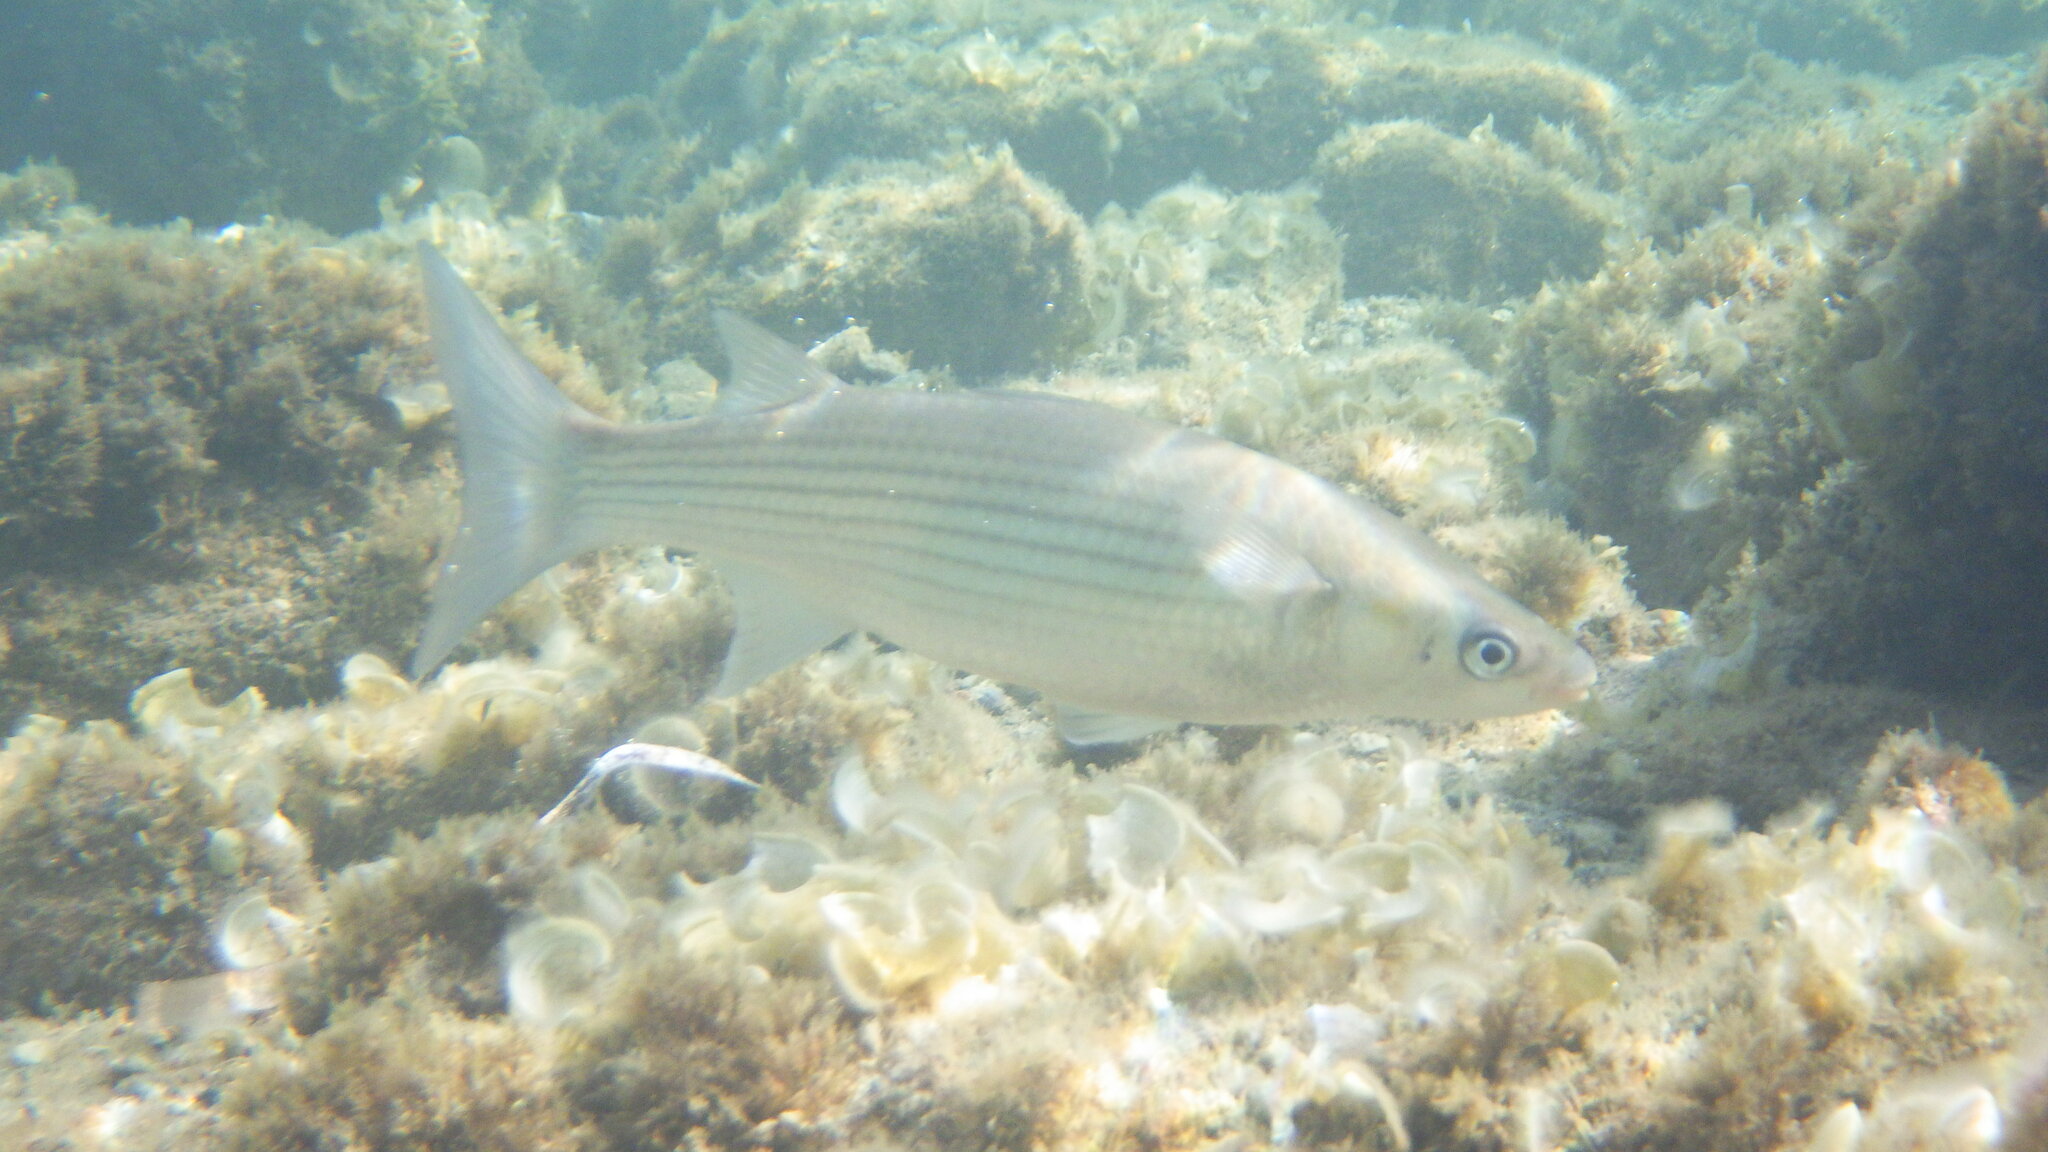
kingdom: Animalia
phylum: Chordata
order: Mugiliformes
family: Mugilidae
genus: Chelon
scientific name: Chelon labrosus
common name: Thick-lipped mullet
